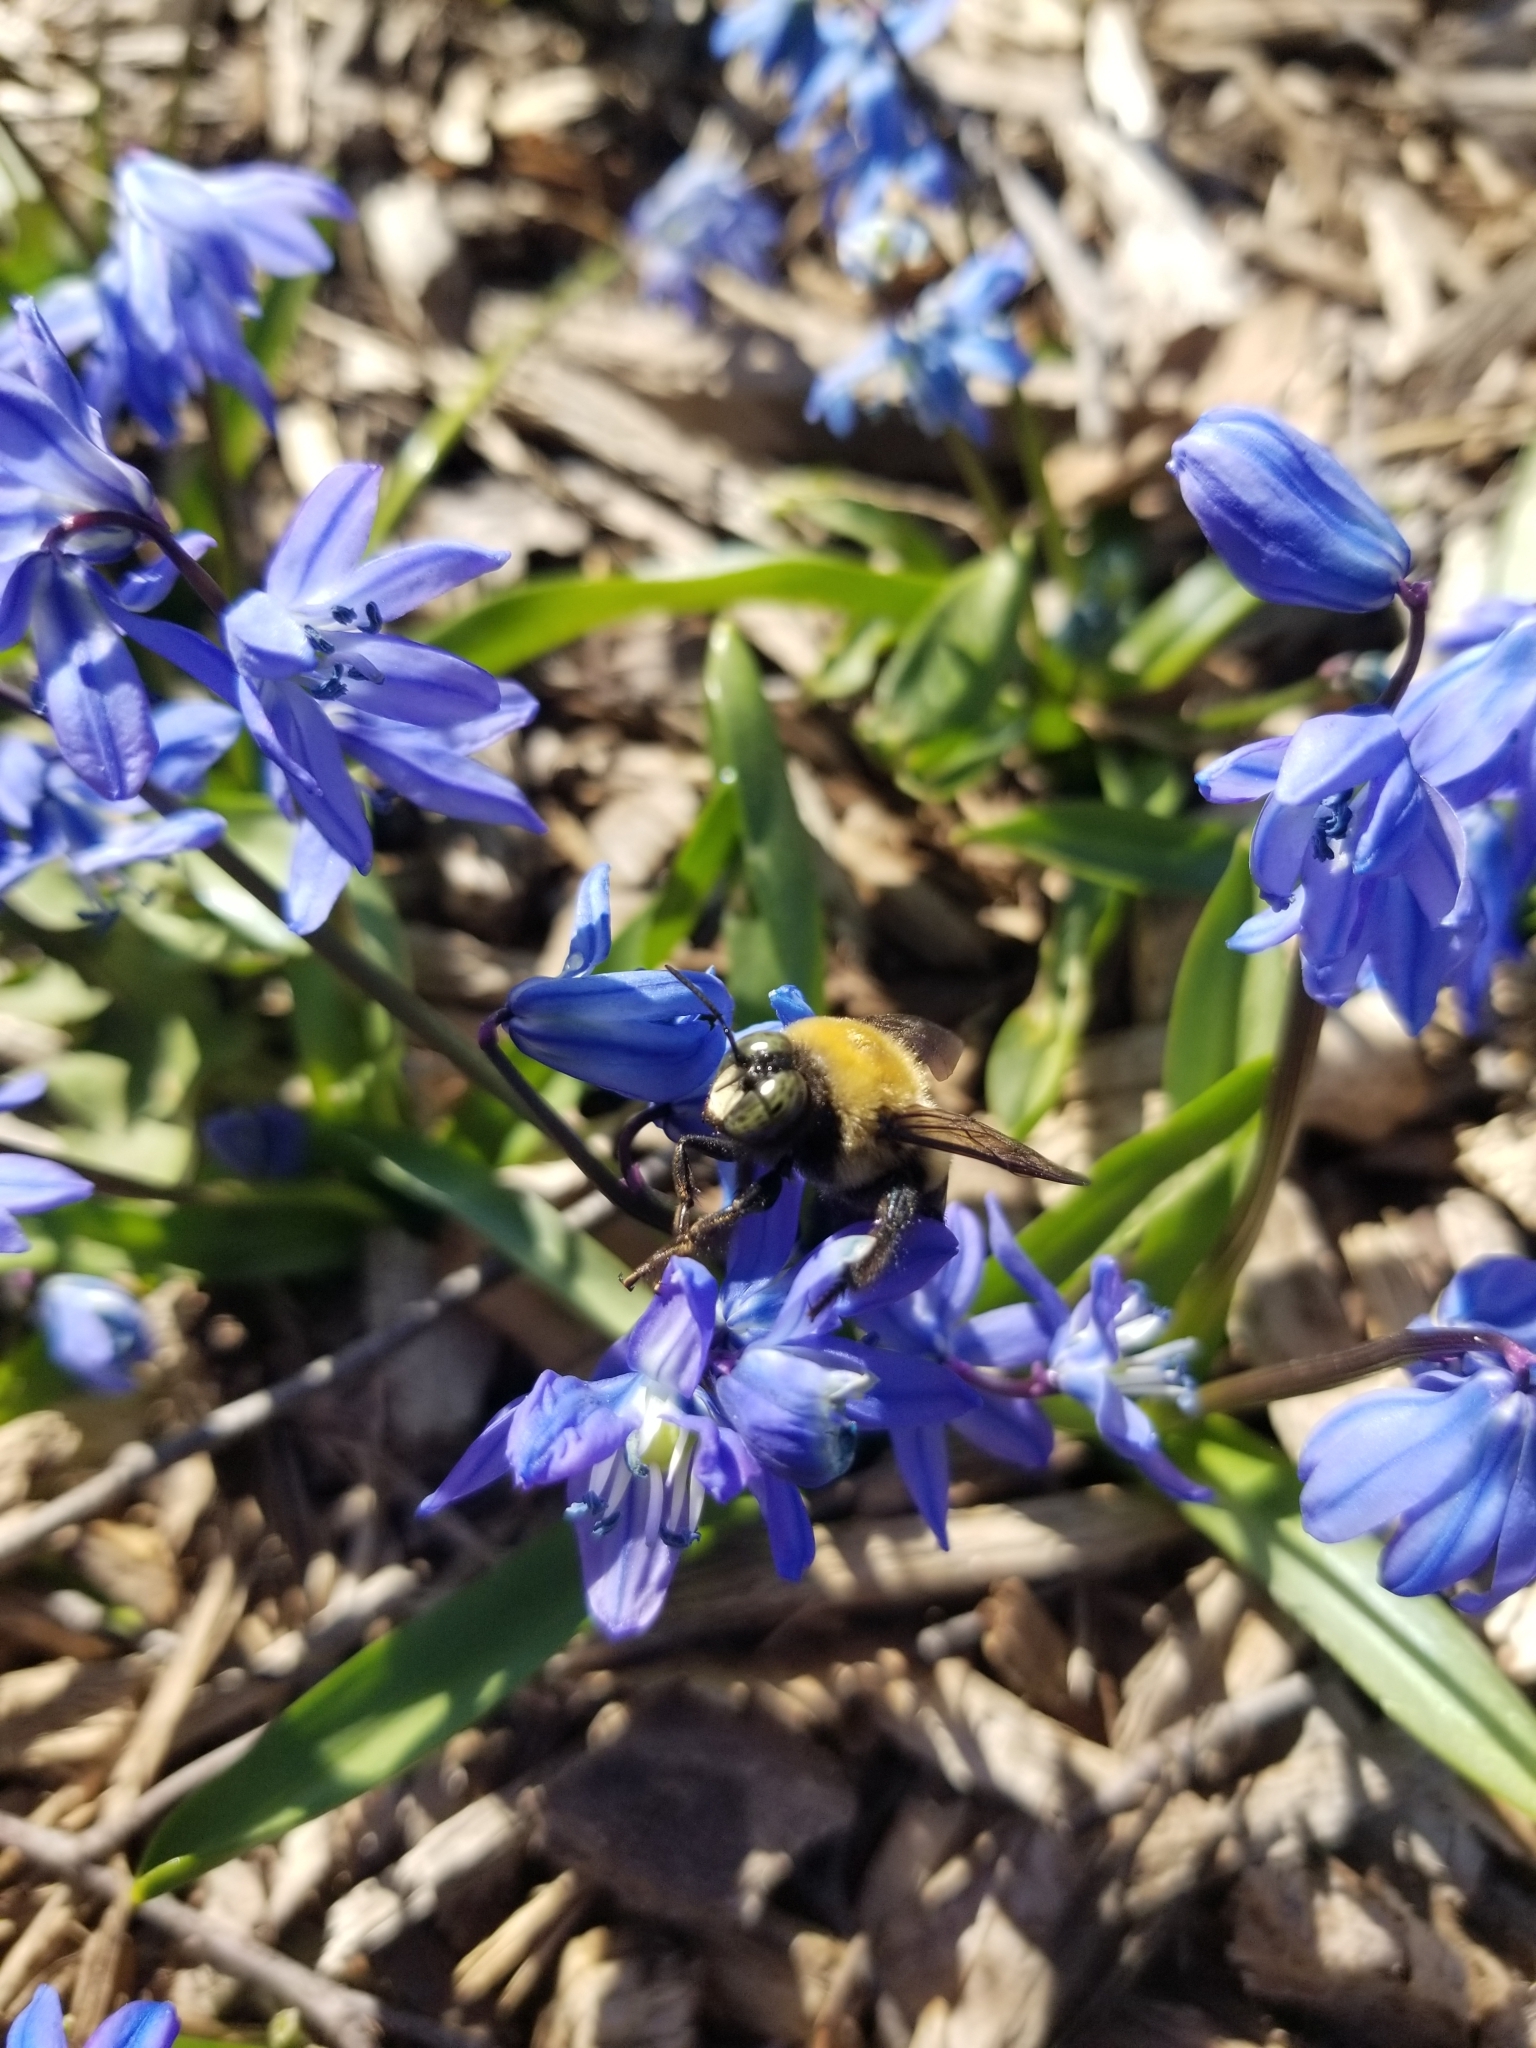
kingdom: Animalia
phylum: Arthropoda
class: Insecta
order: Hymenoptera
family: Apidae
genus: Xylocopa
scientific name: Xylocopa virginica
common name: Carpenter bee
